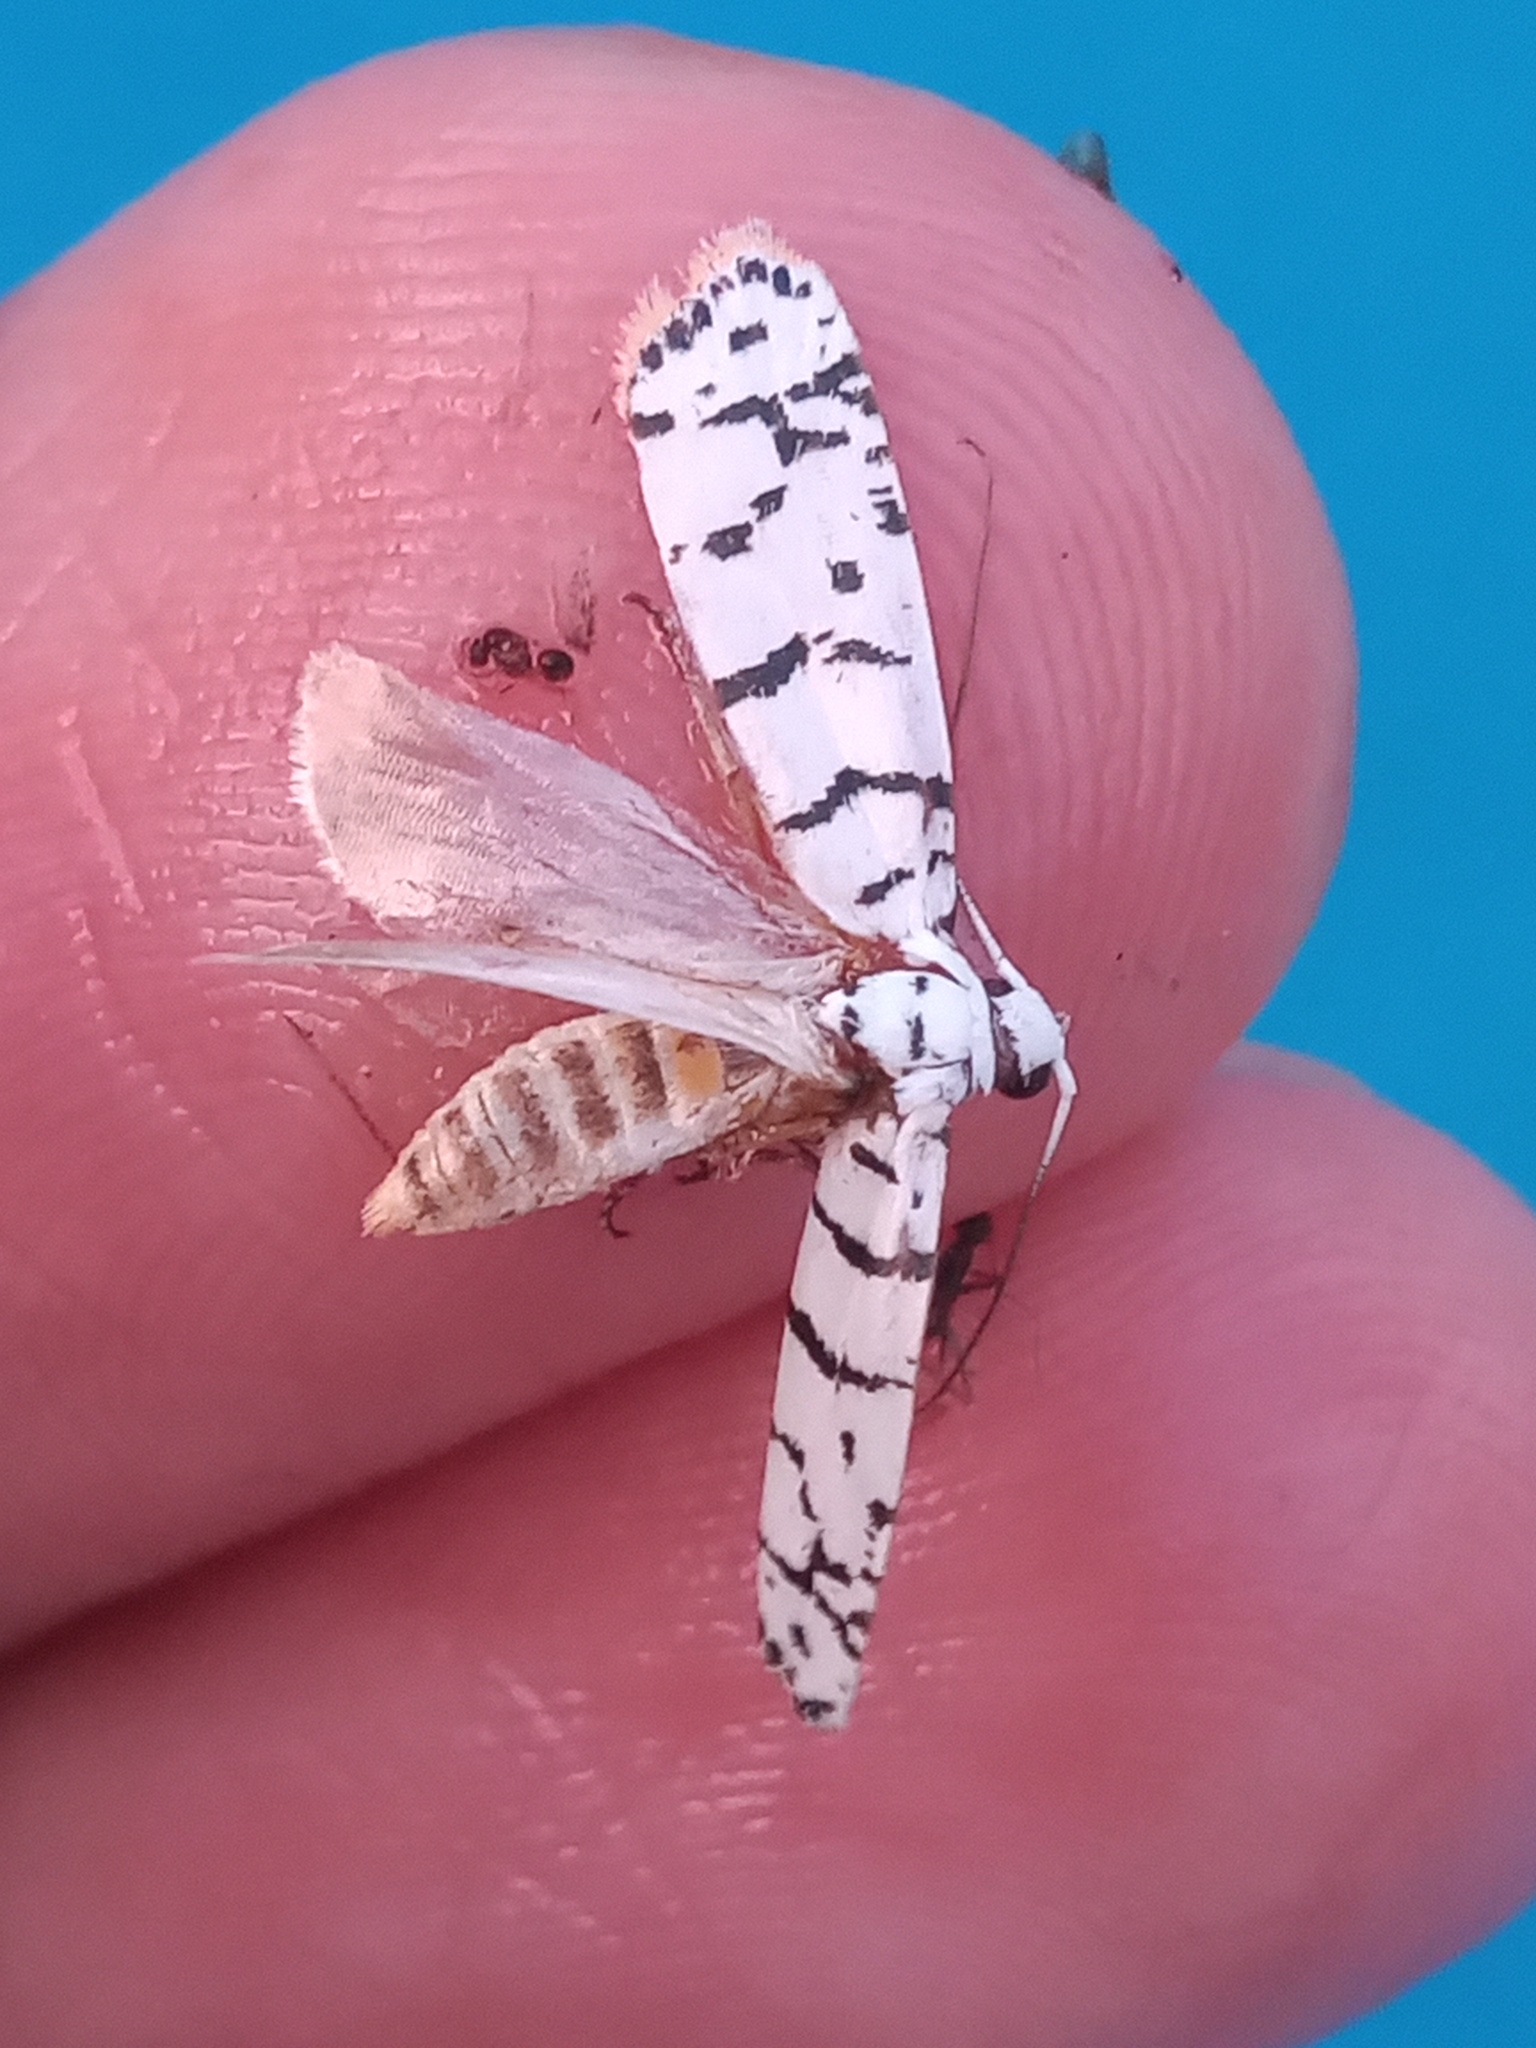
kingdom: Animalia
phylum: Arthropoda
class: Insecta
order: Lepidoptera
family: Ethmiidae
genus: Ethmia
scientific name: Ethmia delliella
